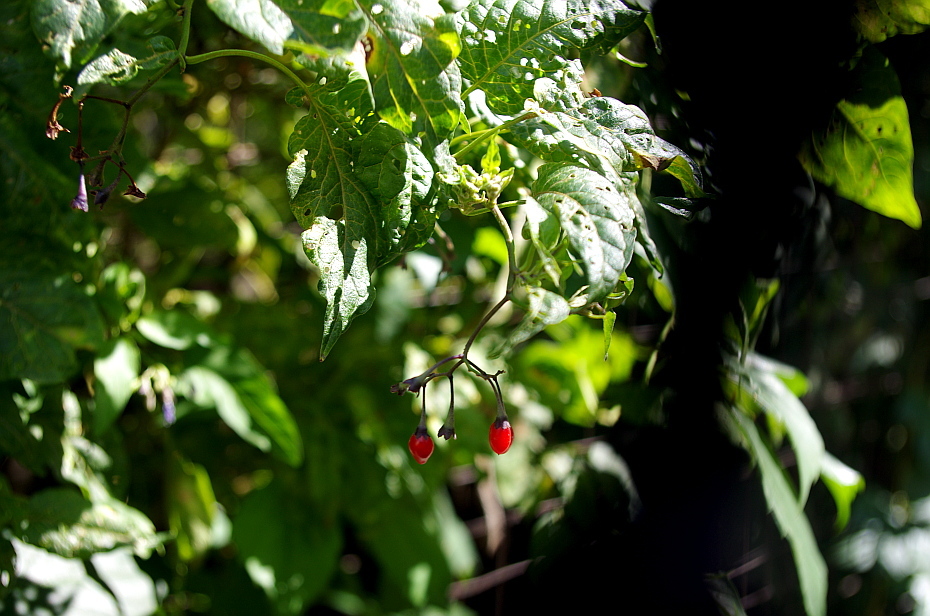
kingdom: Plantae
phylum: Tracheophyta
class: Magnoliopsida
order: Solanales
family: Solanaceae
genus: Solanum
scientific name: Solanum dulcamara
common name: Climbing nightshade
